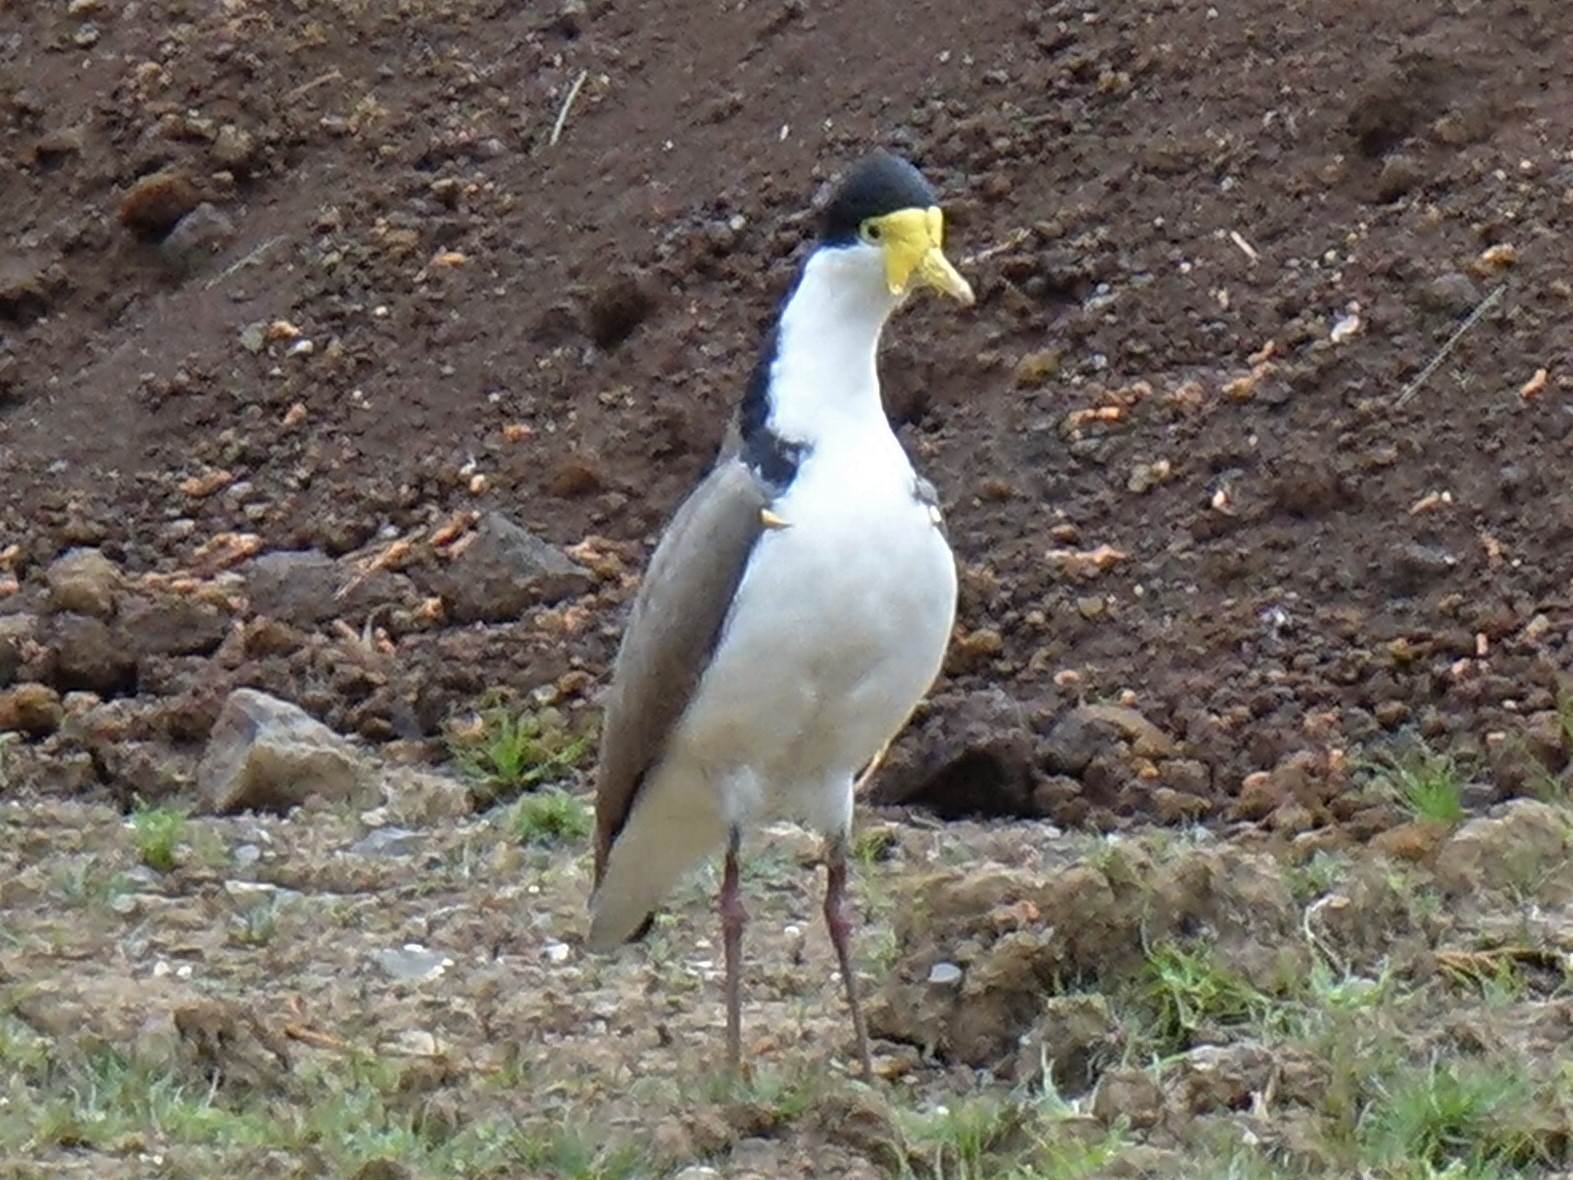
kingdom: Animalia
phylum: Chordata
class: Aves
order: Charadriiformes
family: Charadriidae
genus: Vanellus
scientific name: Vanellus miles
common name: Masked lapwing
